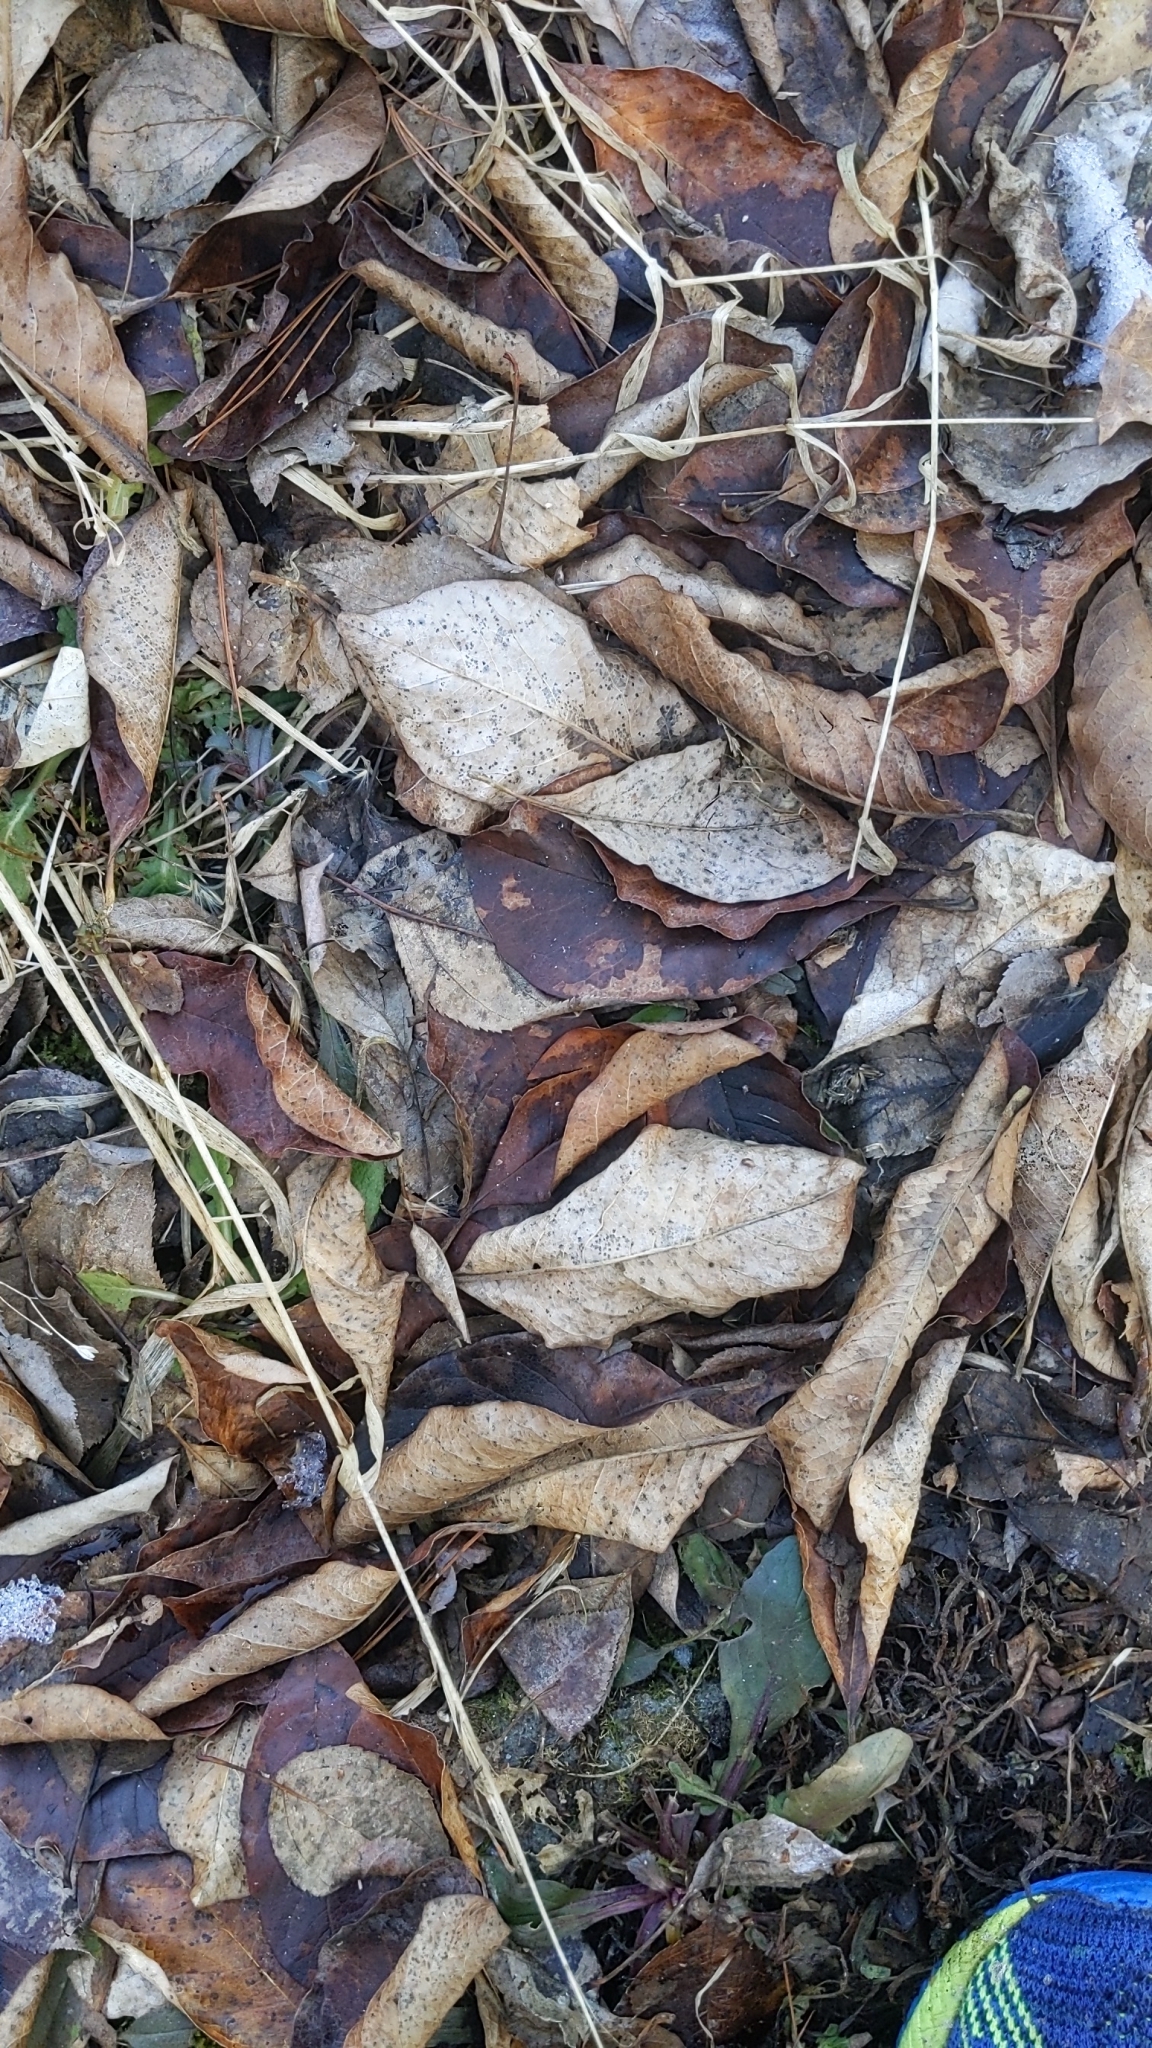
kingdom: Plantae
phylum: Tracheophyta
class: Magnoliopsida
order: Rosales
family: Rosaceae
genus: Prunus
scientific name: Prunus serotina
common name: Black cherry
